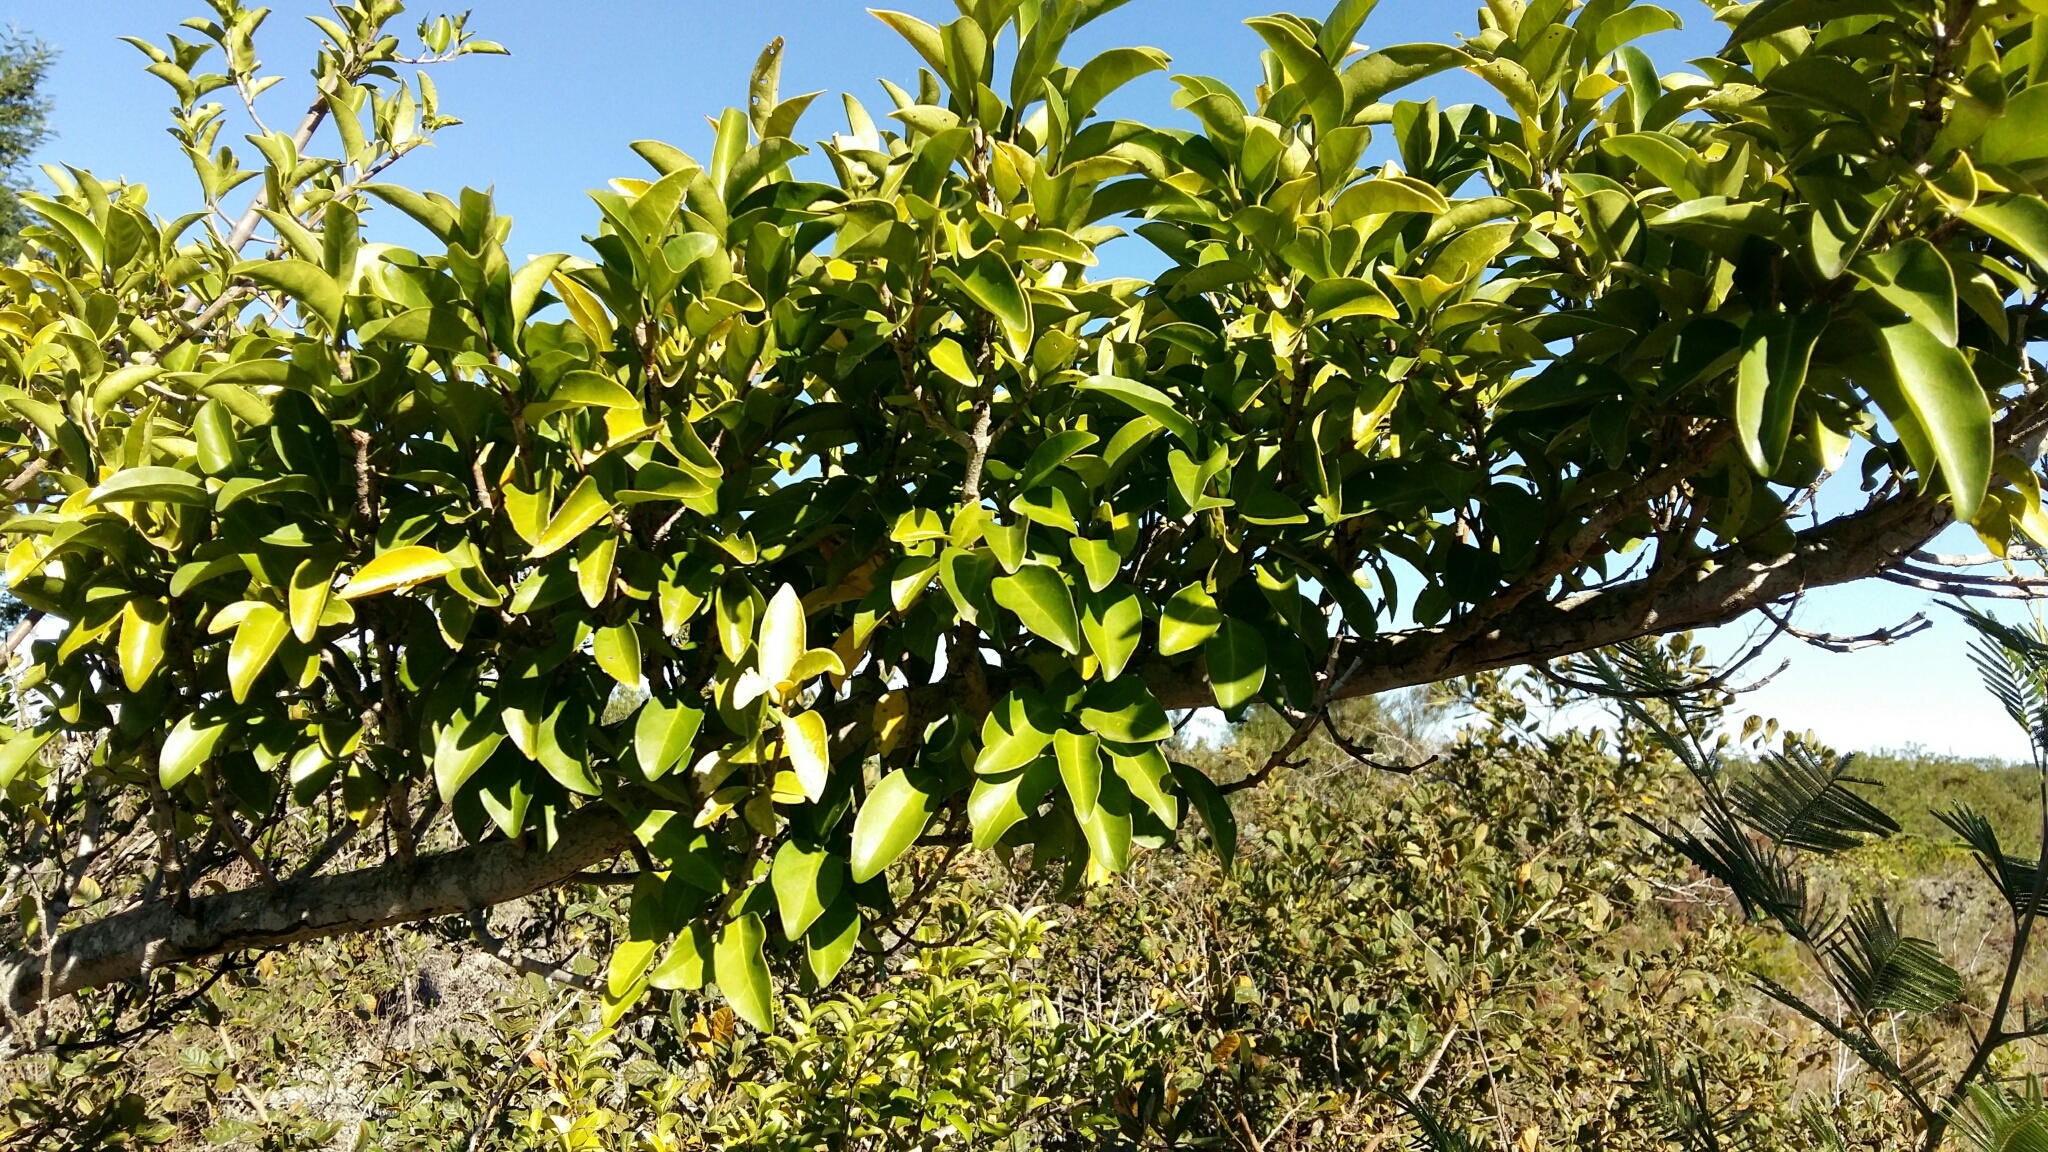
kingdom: Plantae
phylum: Tracheophyta
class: Magnoliopsida
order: Gentianales
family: Rubiaceae
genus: Canthium
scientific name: Canthium inerme
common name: Unarmed turkey-berry
